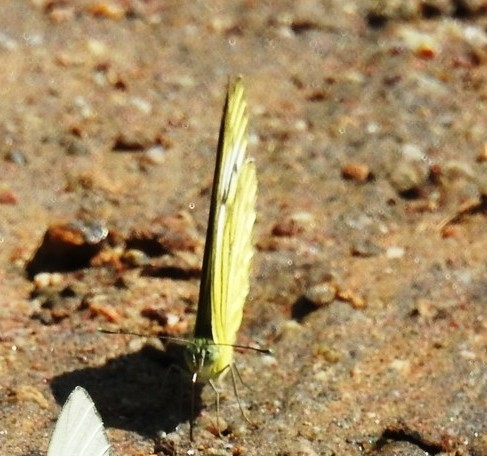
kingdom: Animalia
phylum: Arthropoda
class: Insecta
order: Lepidoptera
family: Pieridae
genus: Cepora
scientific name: Cepora nerissa
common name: Common gull
